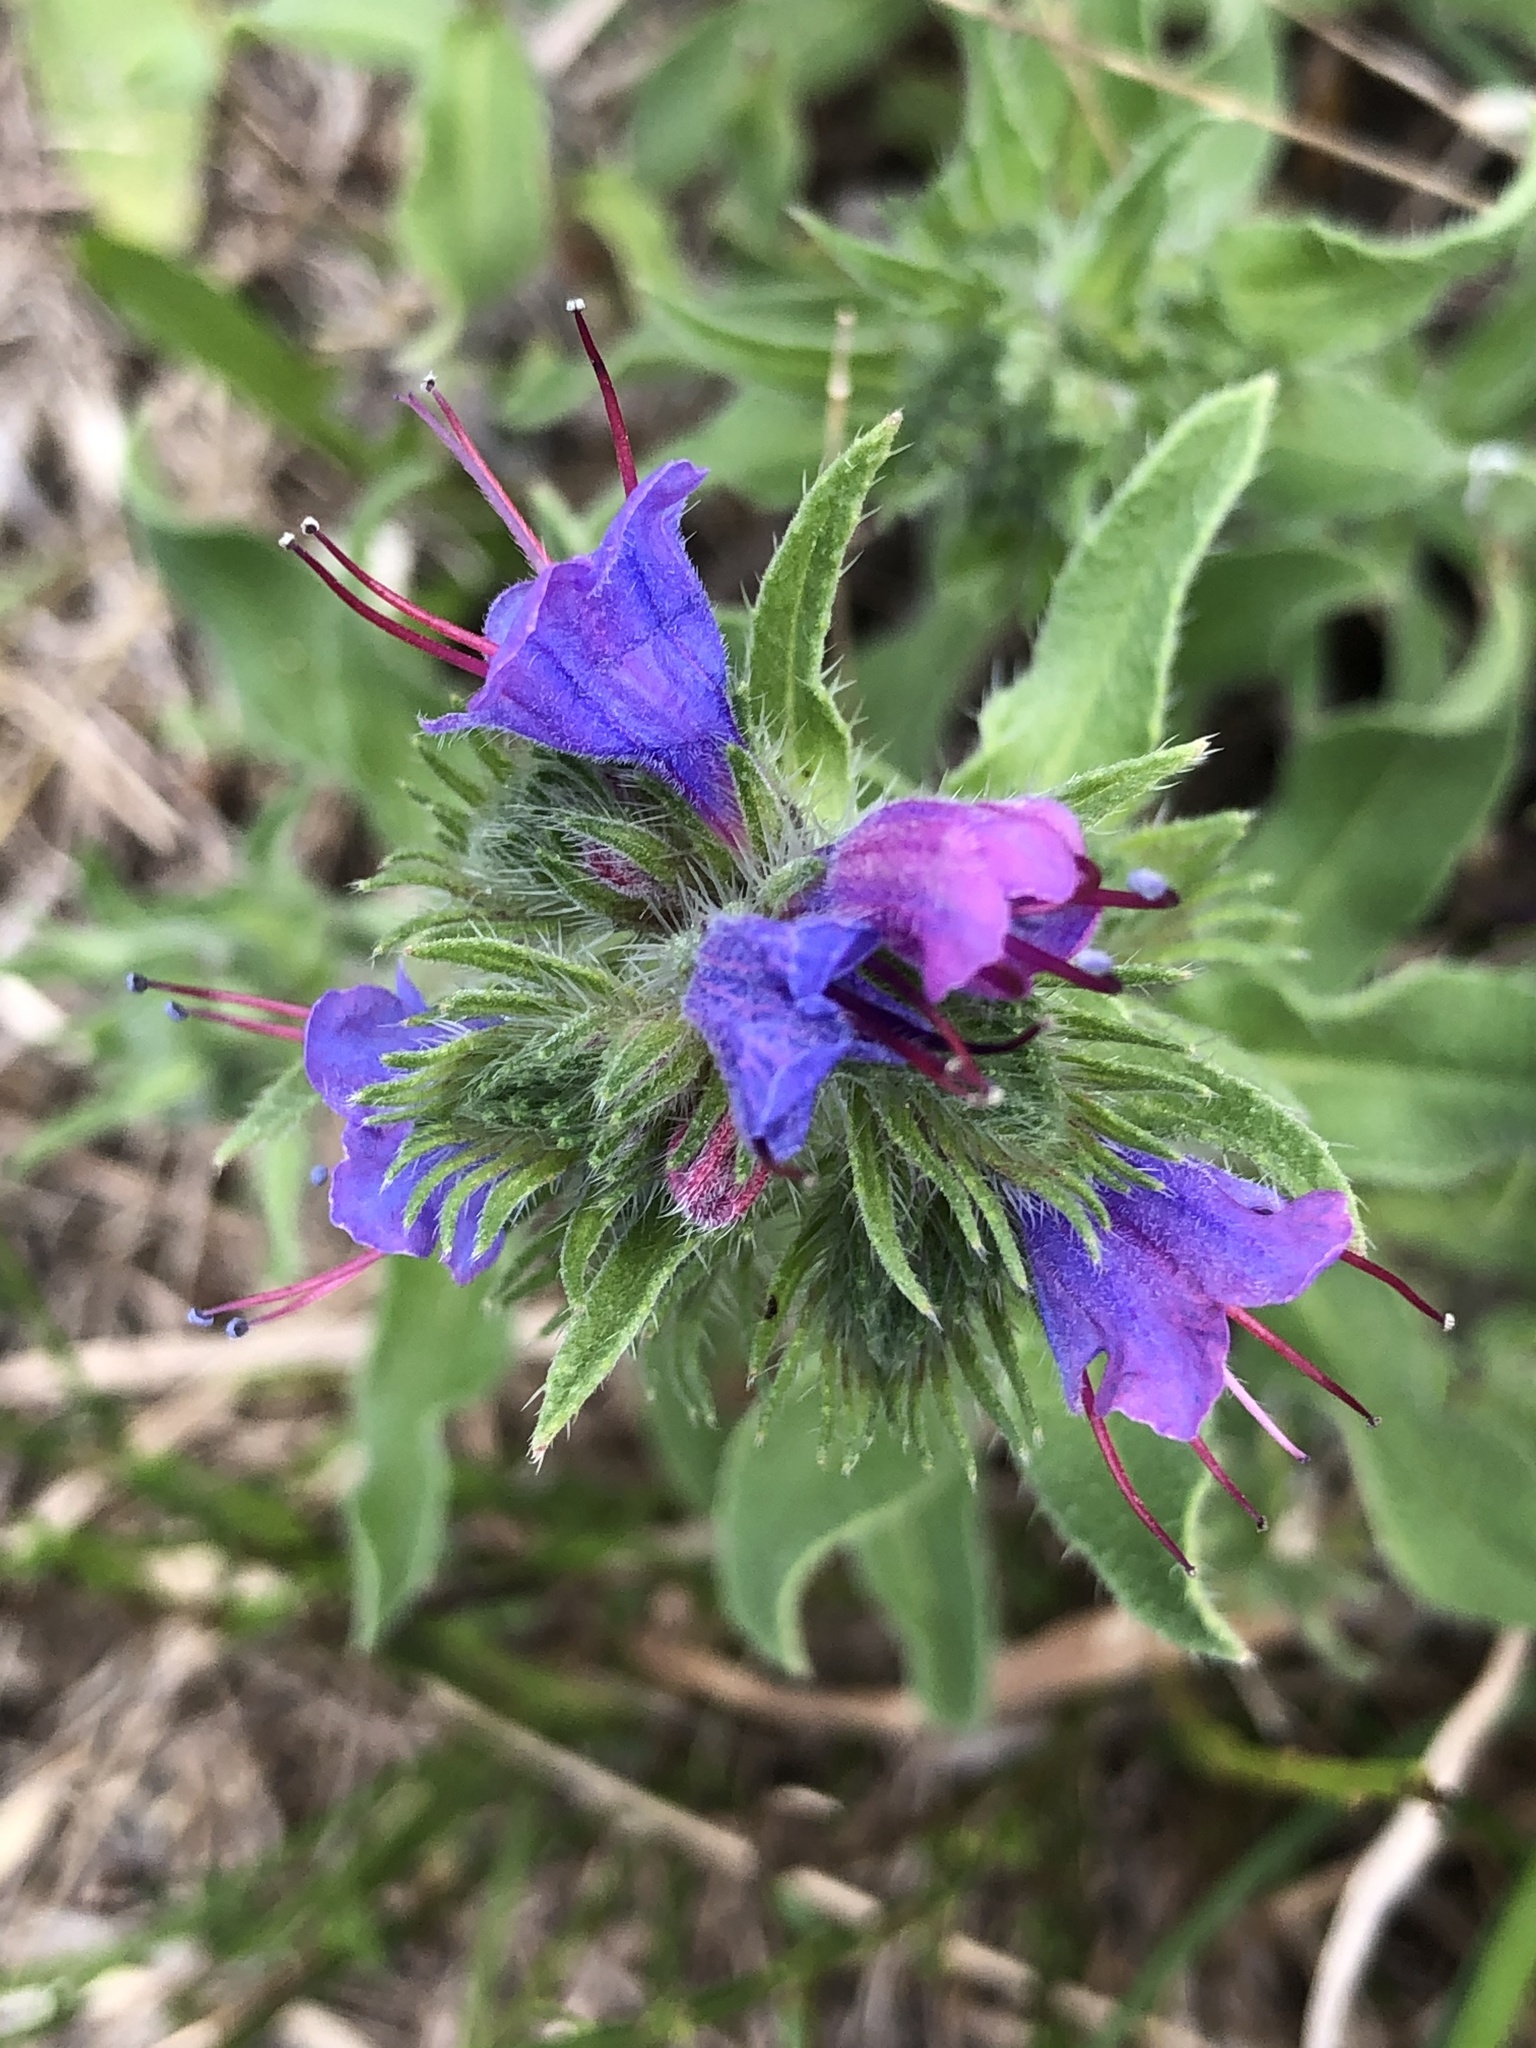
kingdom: Plantae
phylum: Tracheophyta
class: Magnoliopsida
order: Boraginales
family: Boraginaceae
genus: Echium
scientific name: Echium vulgare
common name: Common viper's bugloss
